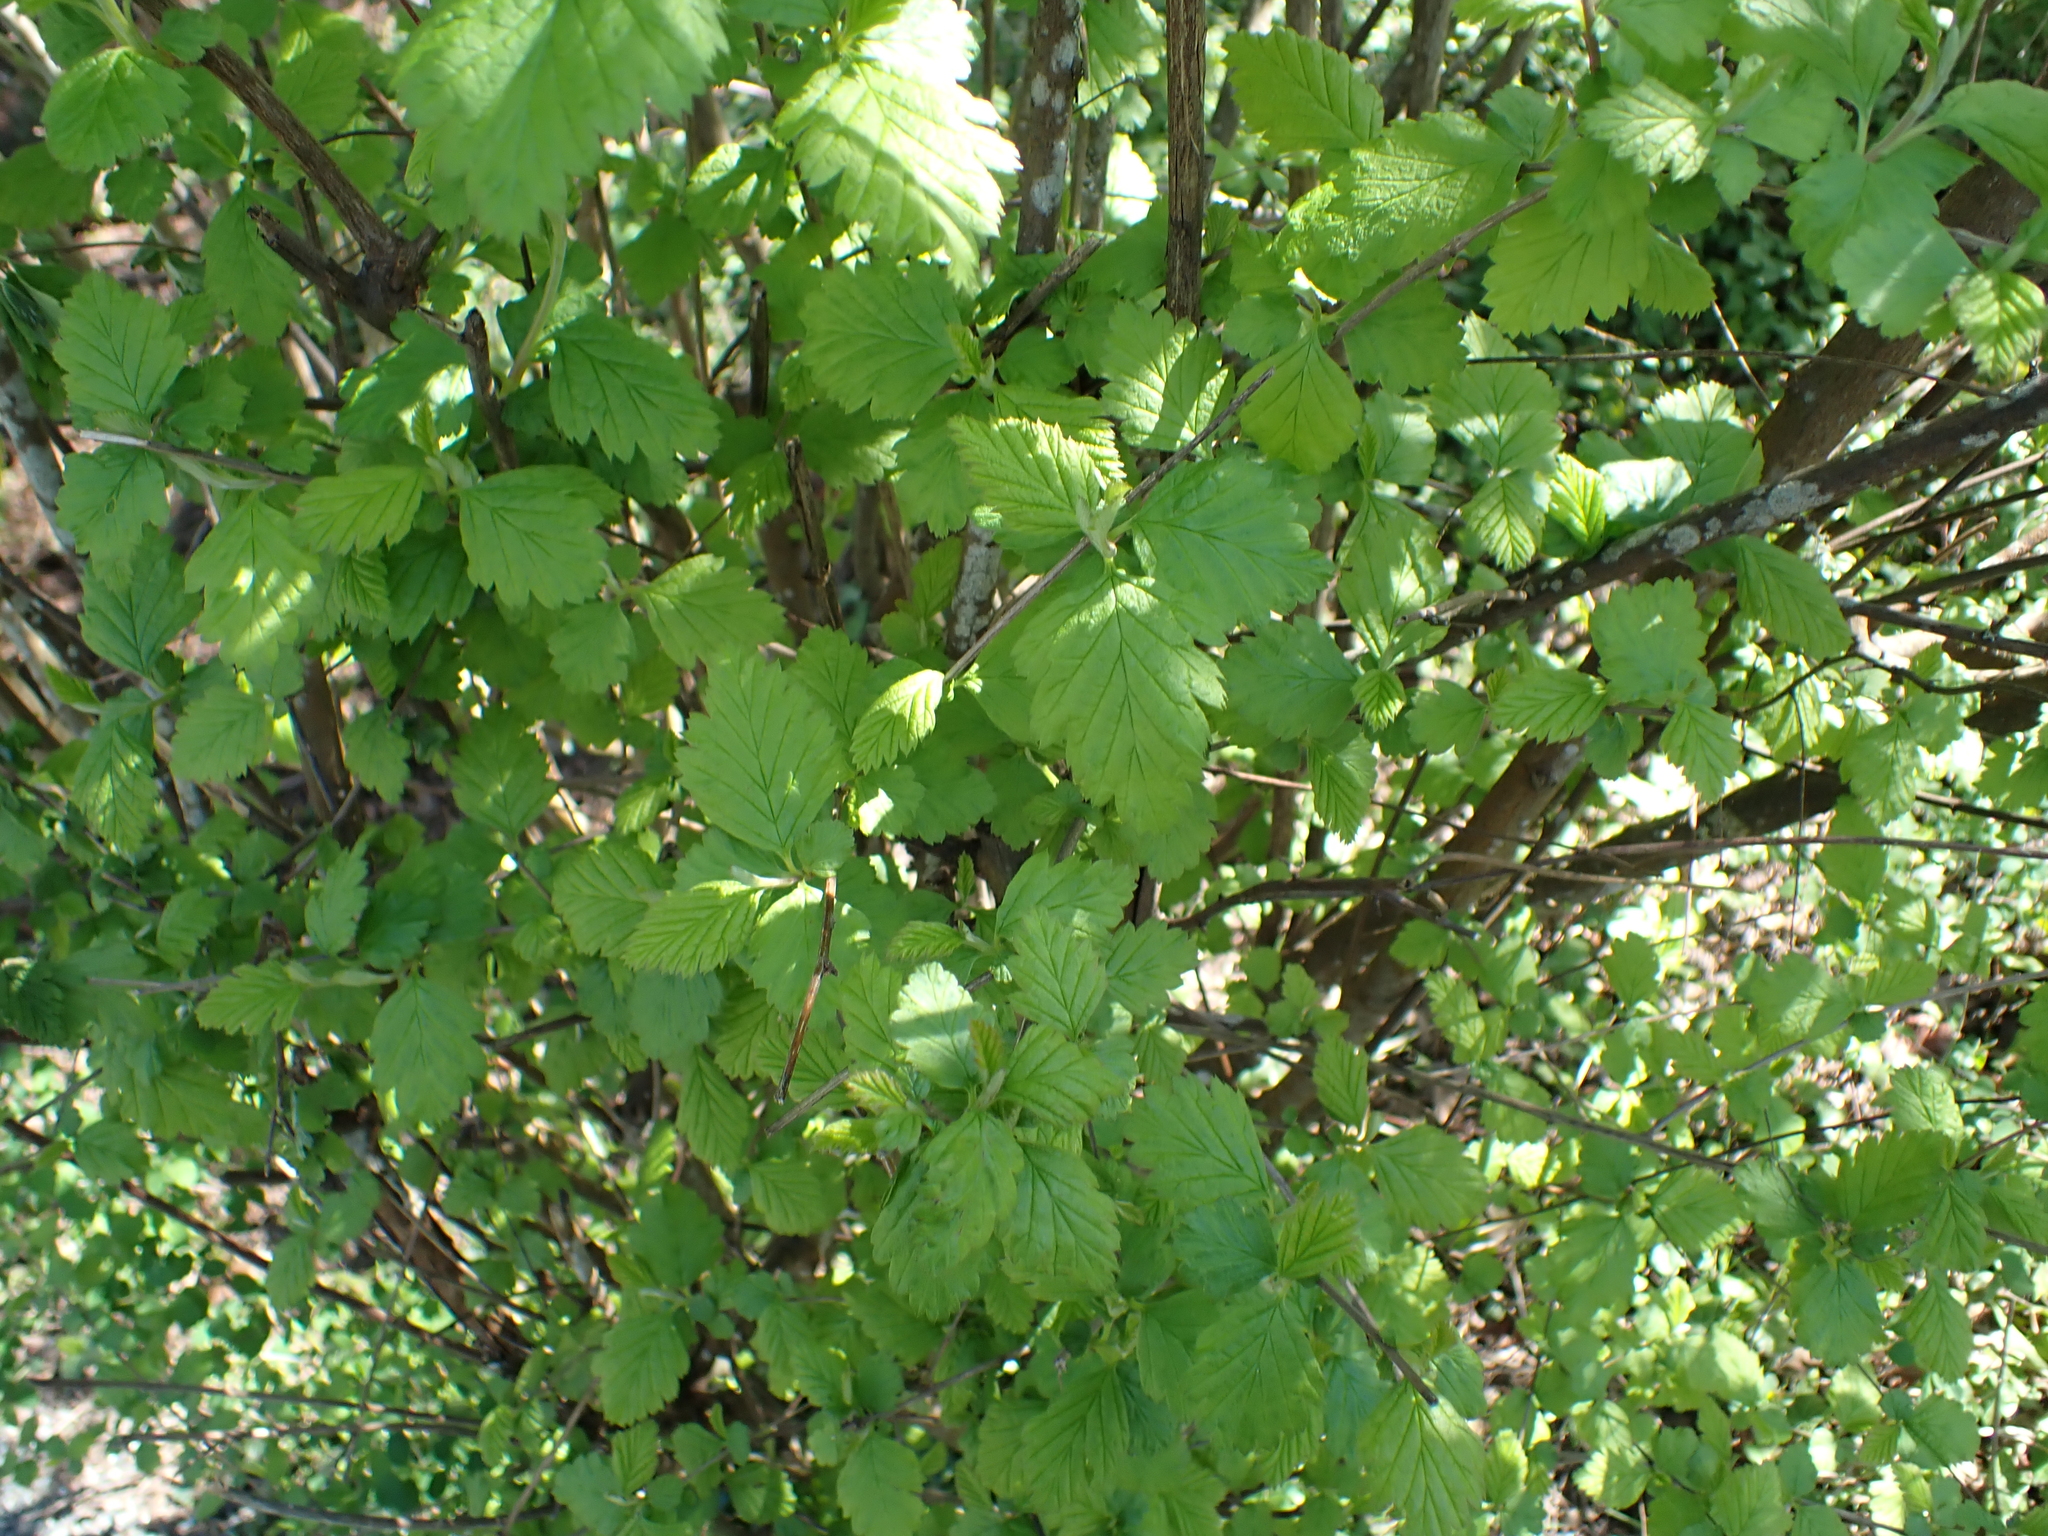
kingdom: Plantae
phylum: Tracheophyta
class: Magnoliopsida
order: Rosales
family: Rosaceae
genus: Holodiscus
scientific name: Holodiscus discolor
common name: Oceanspray
